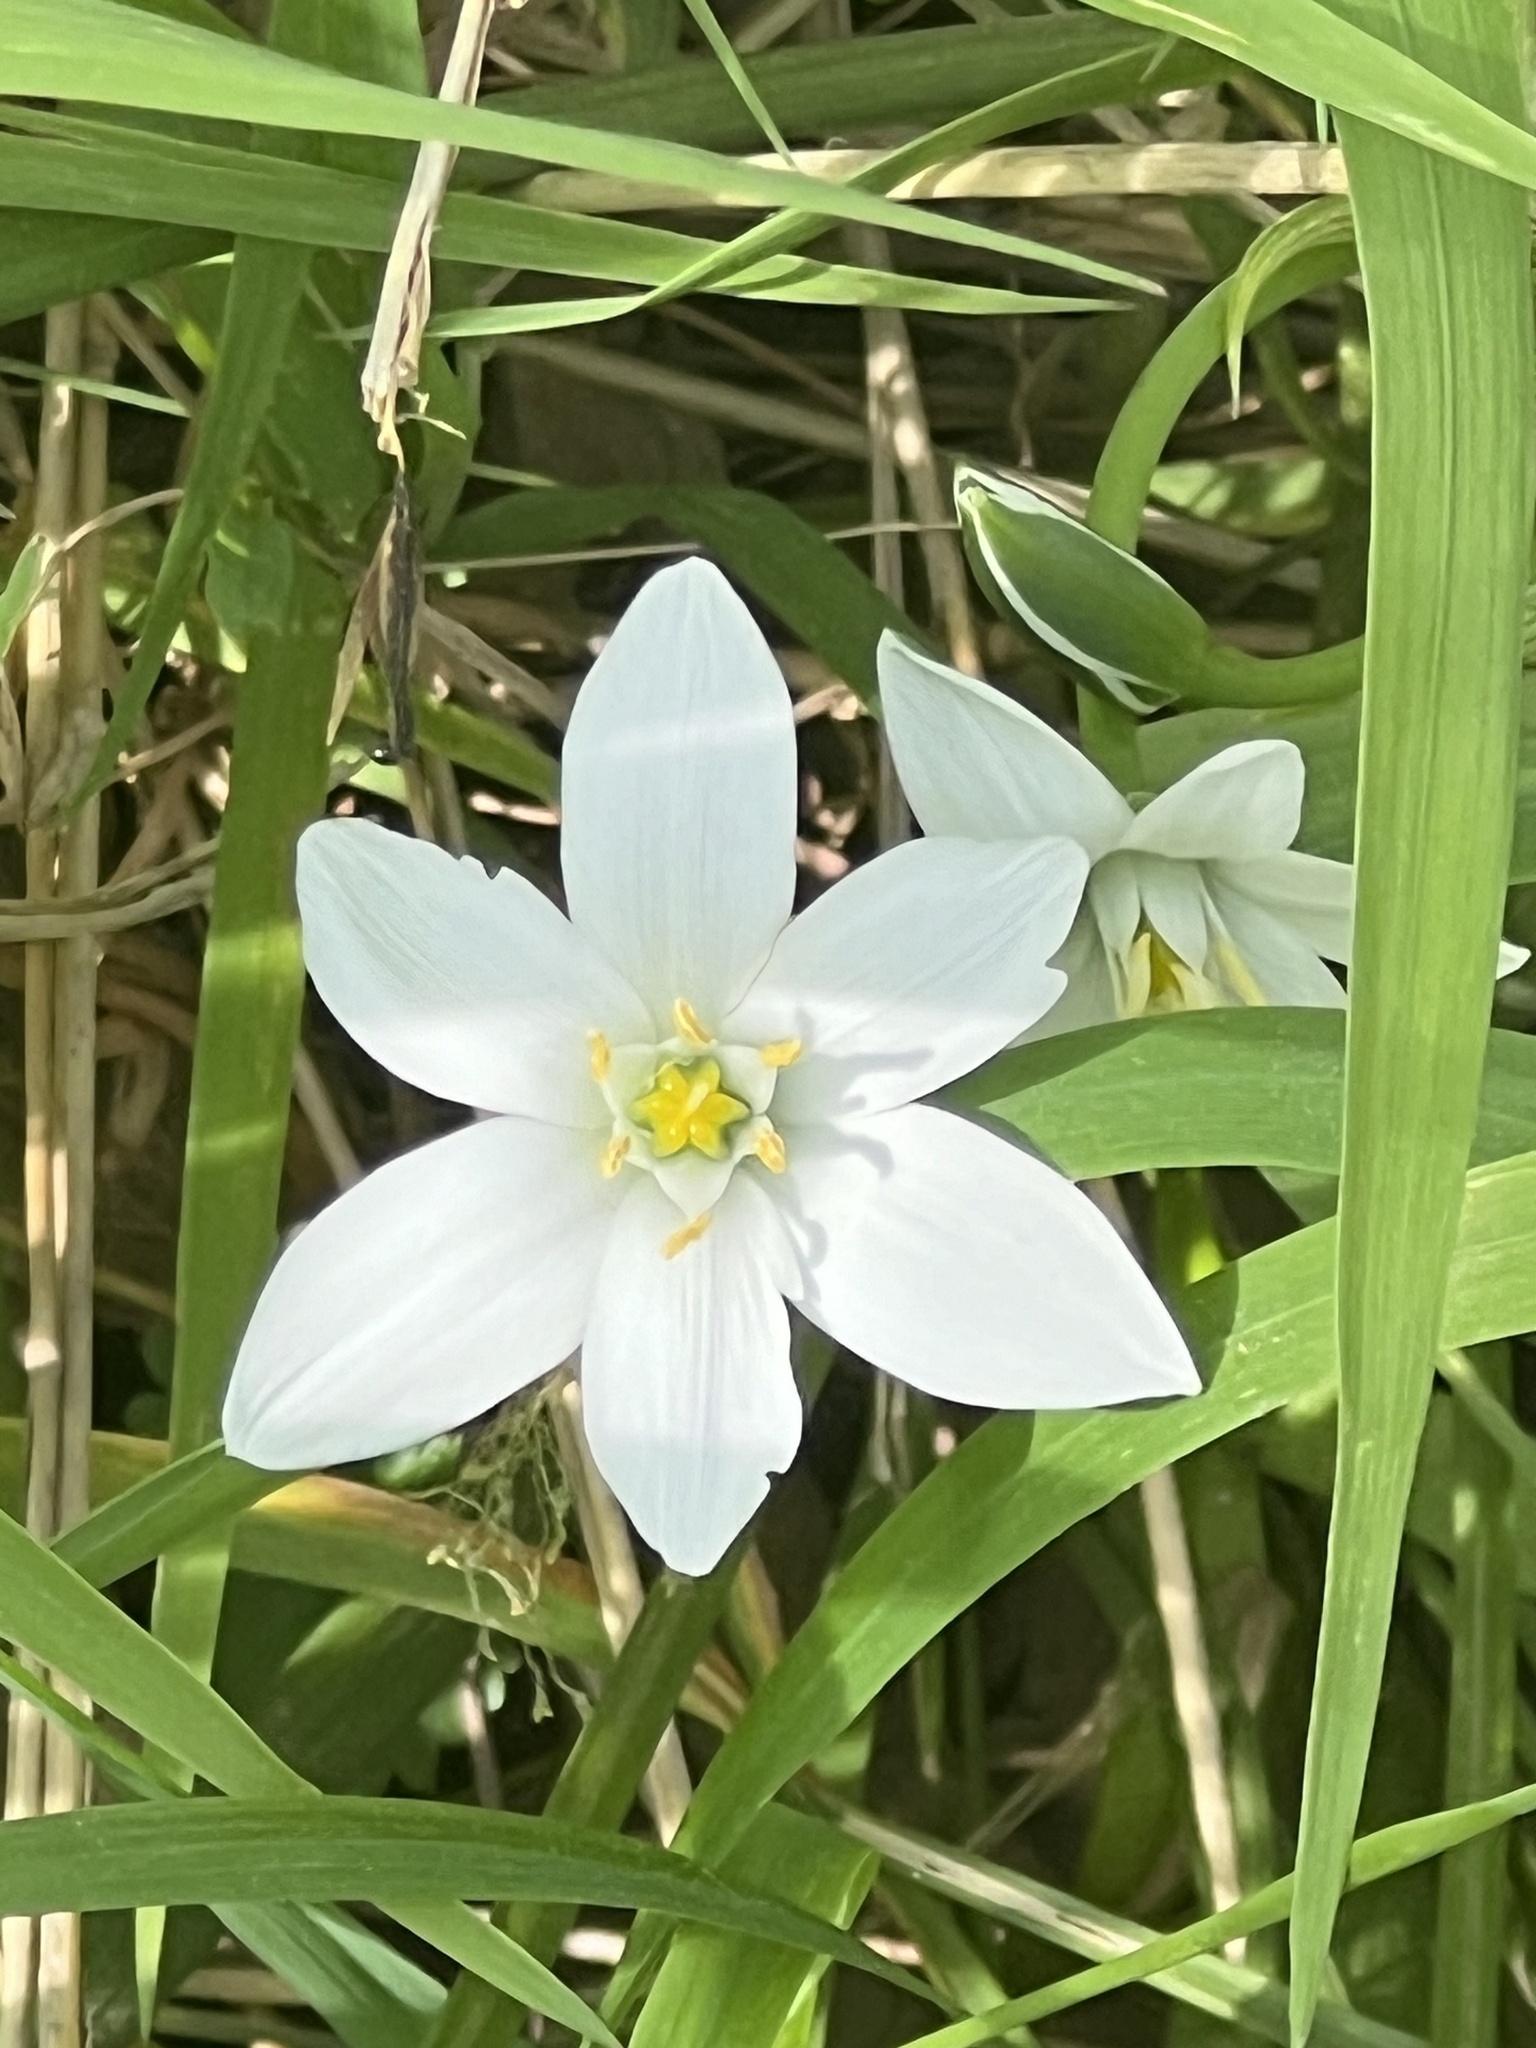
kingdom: Plantae
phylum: Tracheophyta
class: Liliopsida
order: Asparagales
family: Asparagaceae
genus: Ornithogalum
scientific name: Ornithogalum umbellatum
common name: Garden star-of-bethlehem
